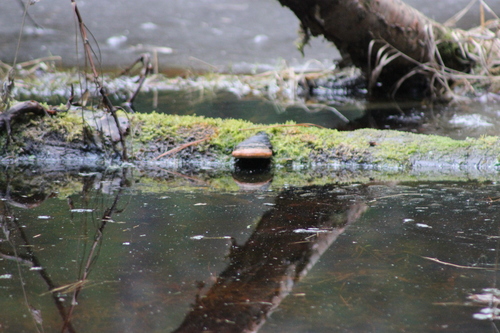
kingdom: Fungi
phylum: Basidiomycota
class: Agaricomycetes
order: Polyporales
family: Fomitopsidaceae
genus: Fomitopsis
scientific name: Fomitopsis pinicola
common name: Red-belted bracket
